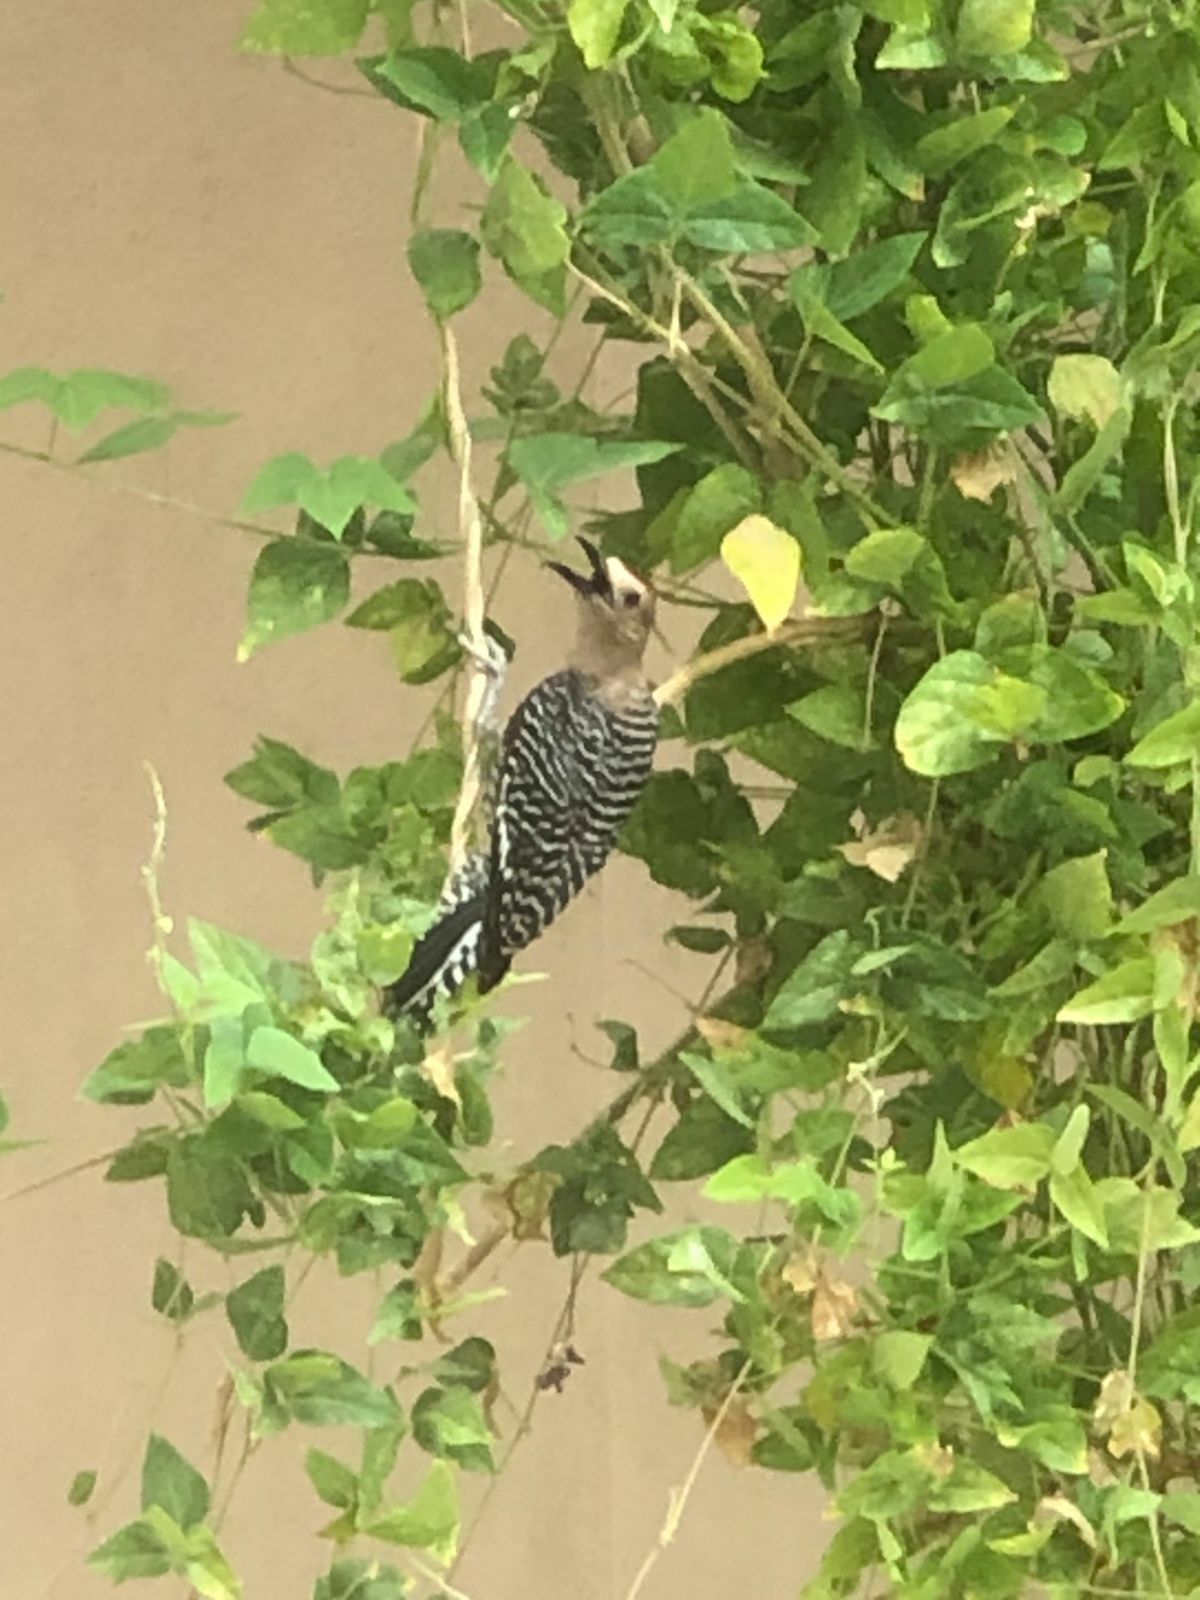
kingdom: Animalia
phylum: Chordata
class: Aves
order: Piciformes
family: Picidae
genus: Melanerpes
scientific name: Melanerpes uropygialis
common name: Gila woodpecker
